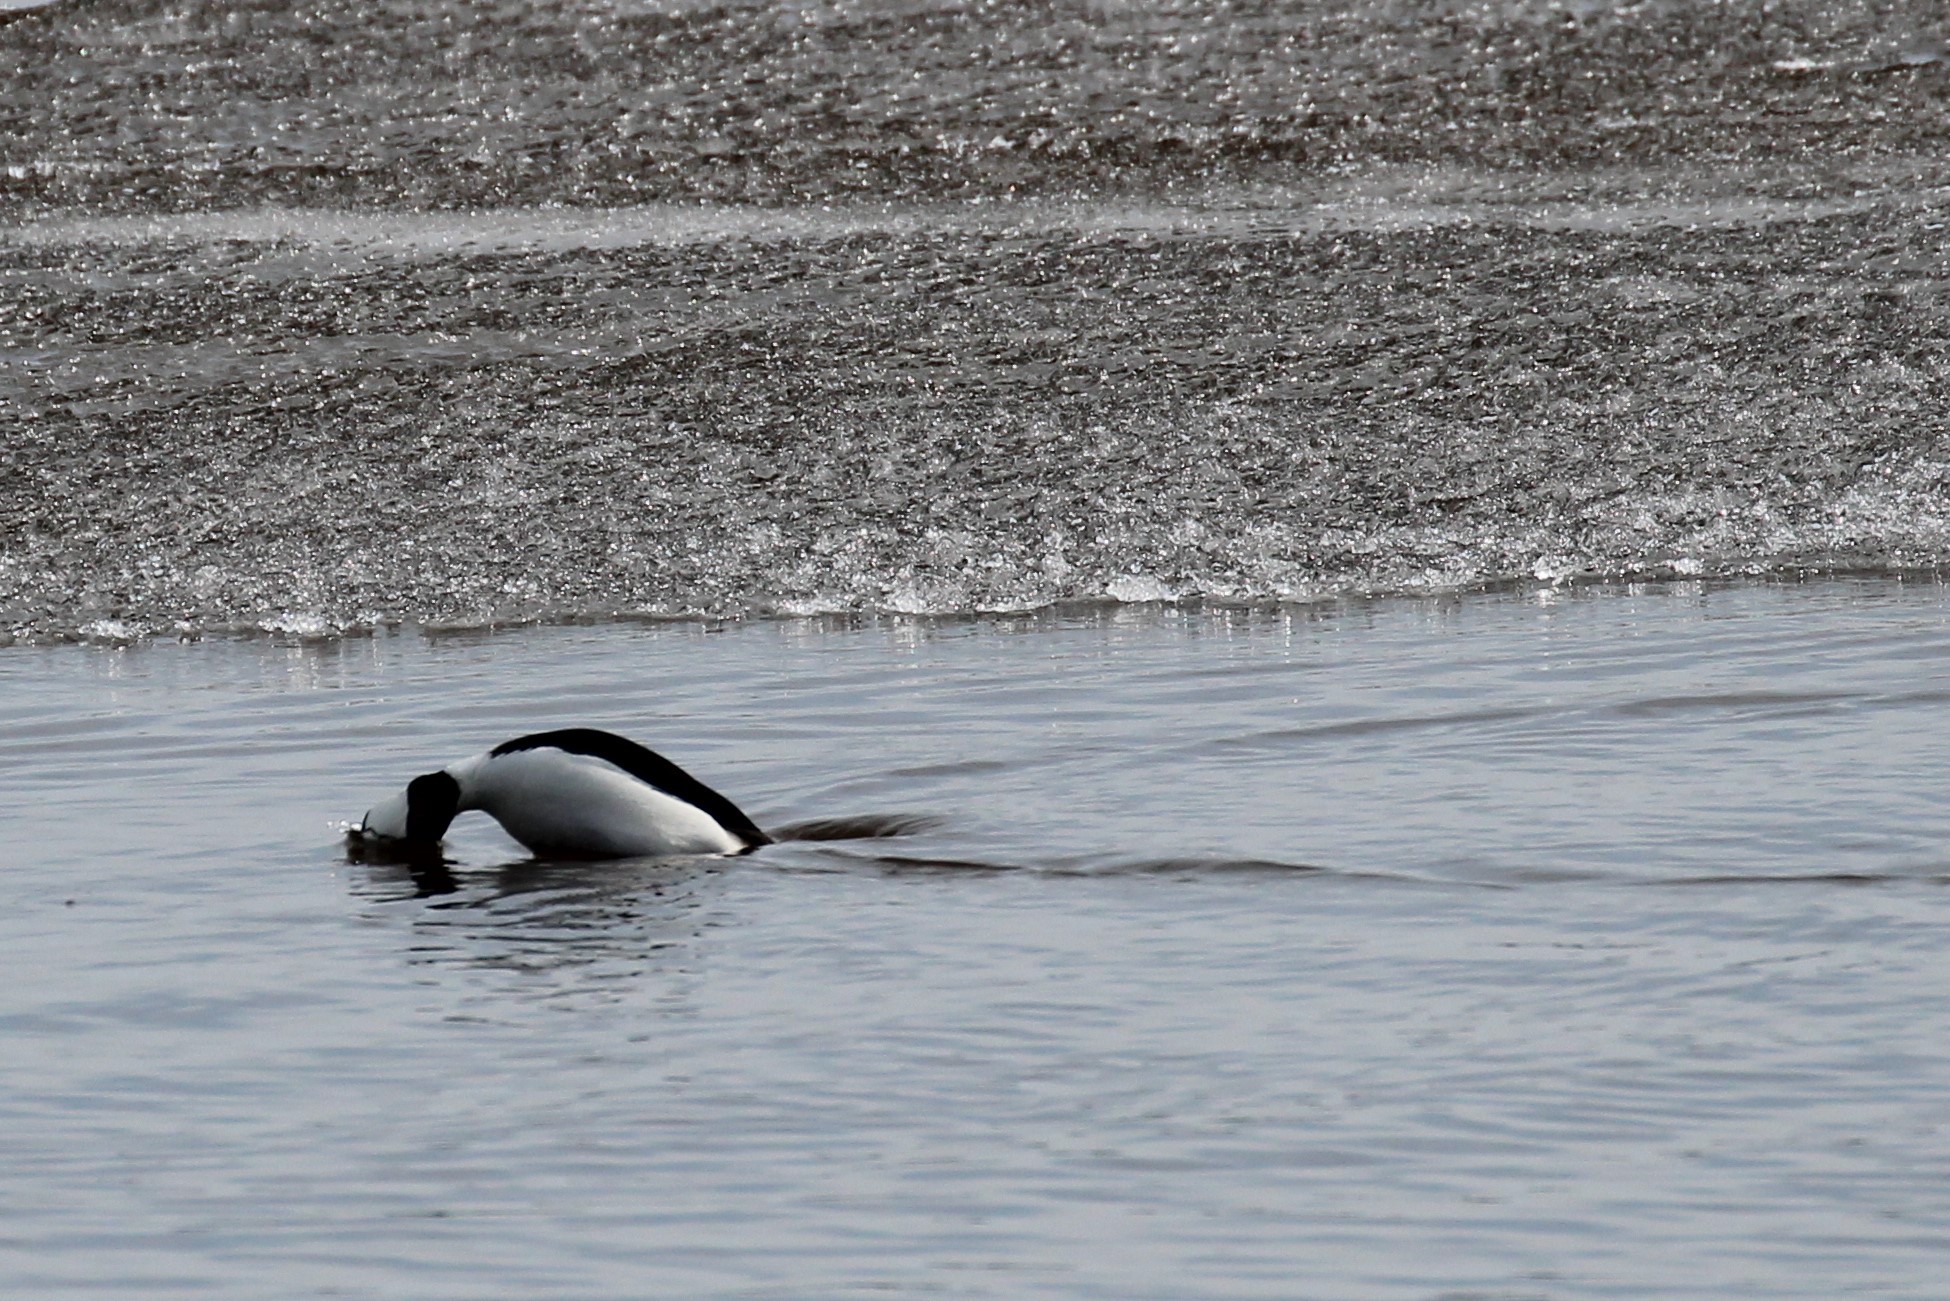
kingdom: Animalia
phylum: Chordata
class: Aves
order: Anseriformes
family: Anatidae
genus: Bucephala
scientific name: Bucephala albeola
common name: Bufflehead
